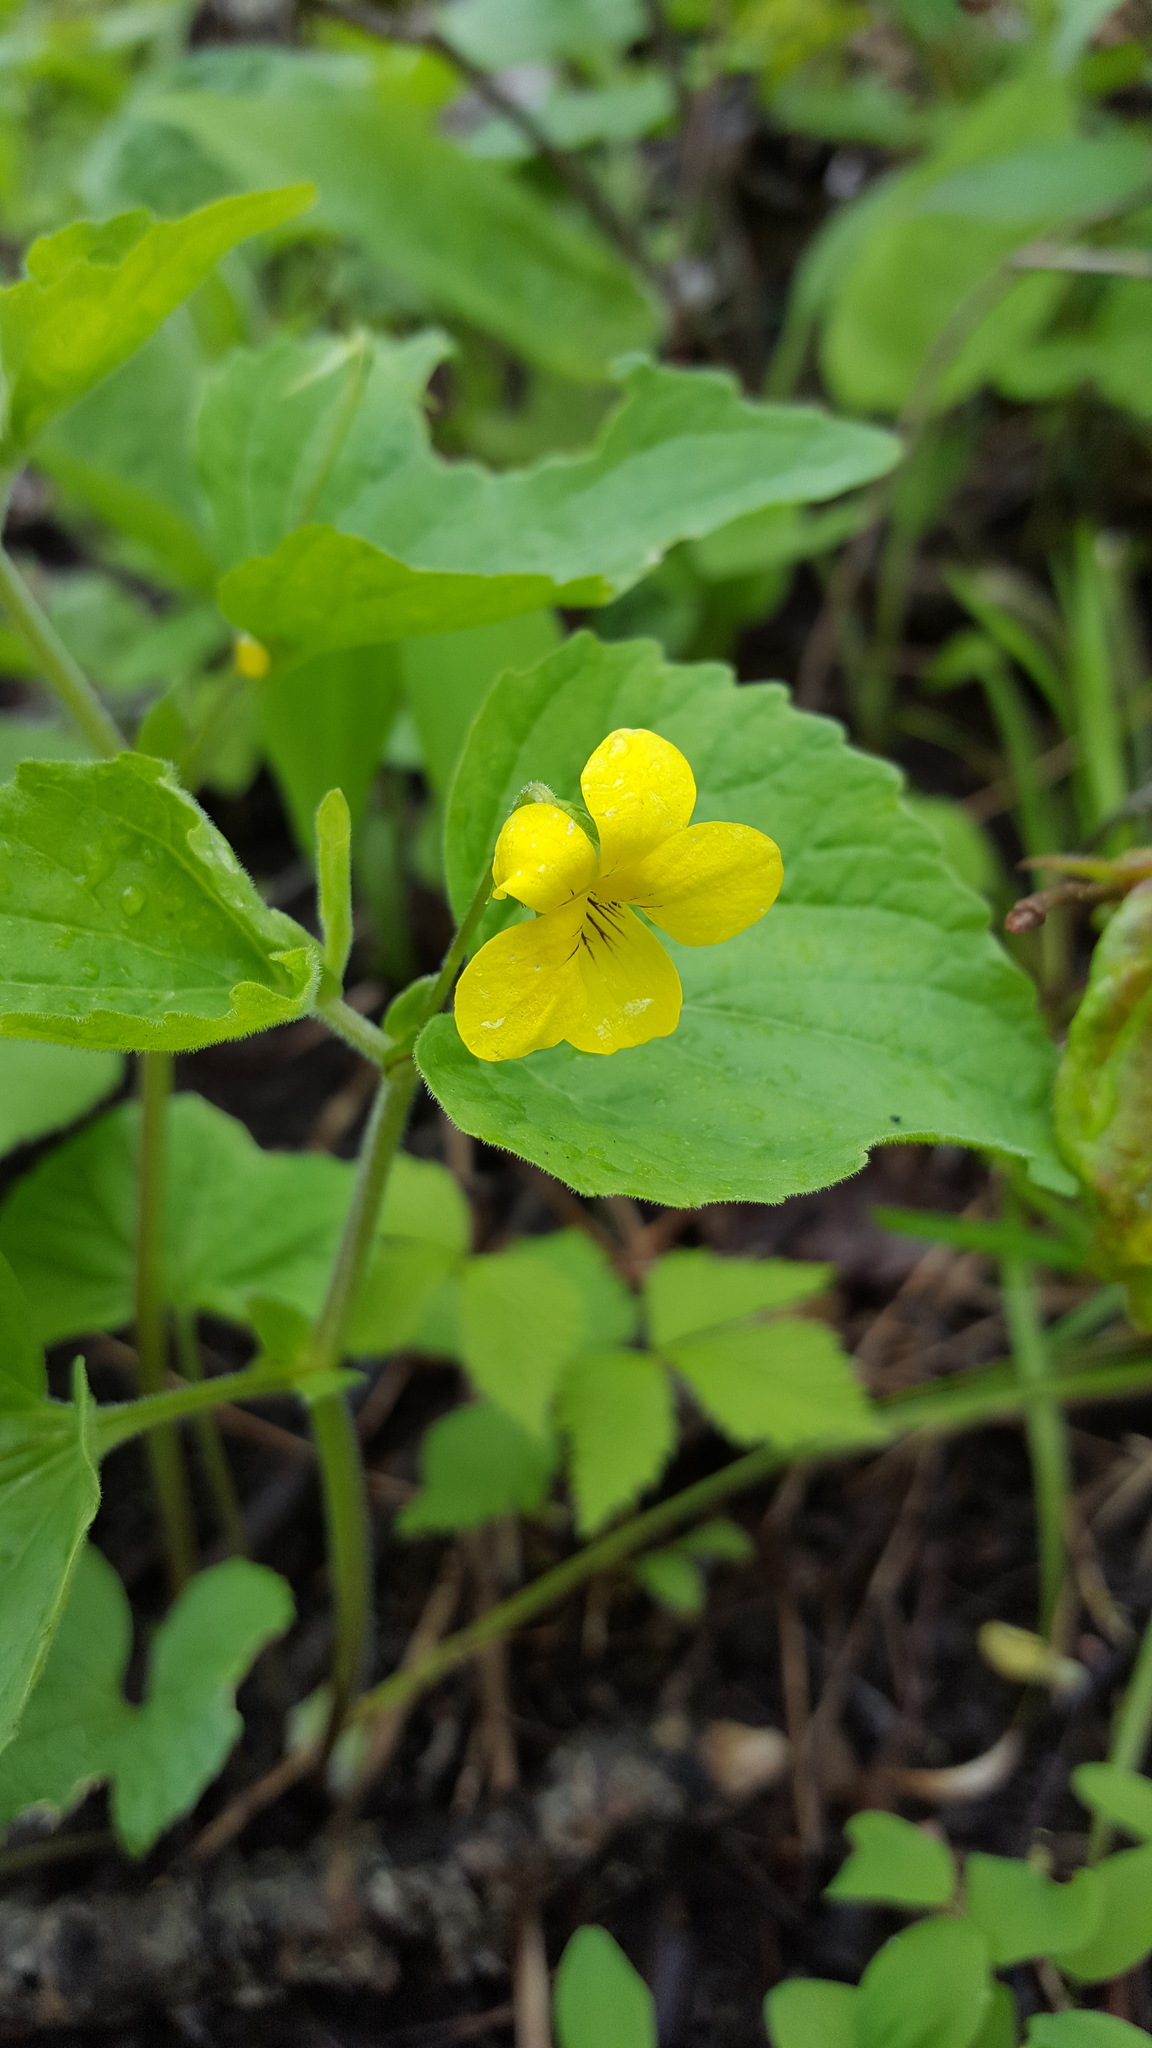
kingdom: Plantae
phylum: Tracheophyta
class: Magnoliopsida
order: Malpighiales
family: Violaceae
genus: Viola
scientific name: Viola eriocarpa
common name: Smooth yellow violet
